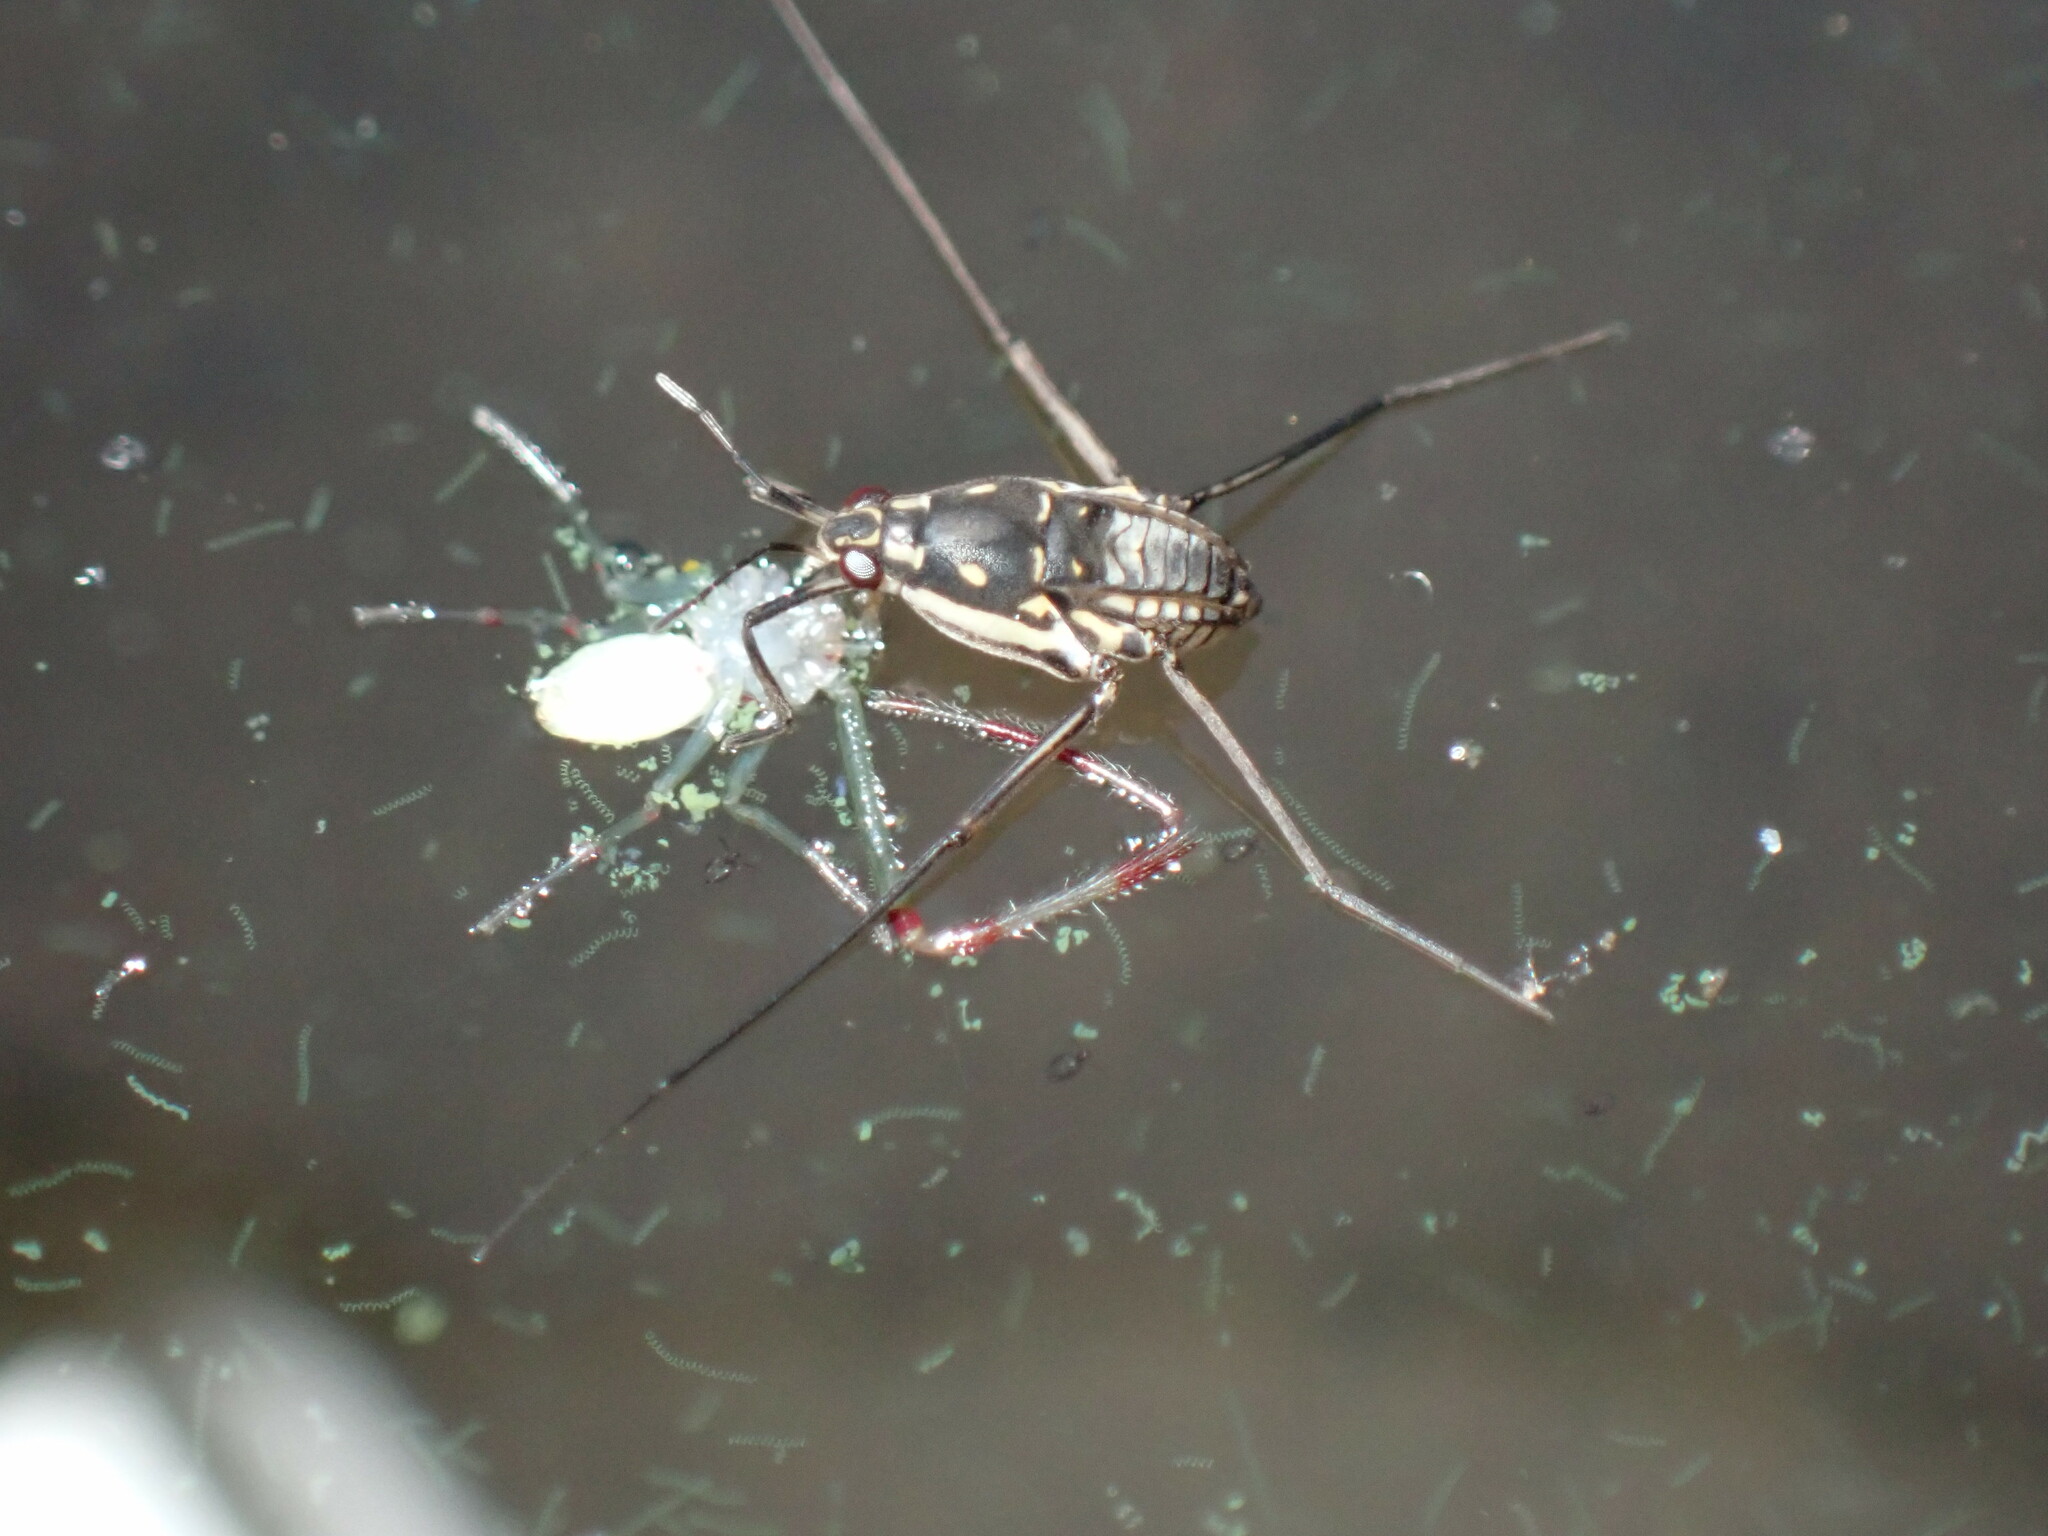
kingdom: Animalia
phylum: Arthropoda
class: Insecta
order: Hemiptera
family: Gerridae
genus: Trepobates
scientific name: Trepobates subnitidus
